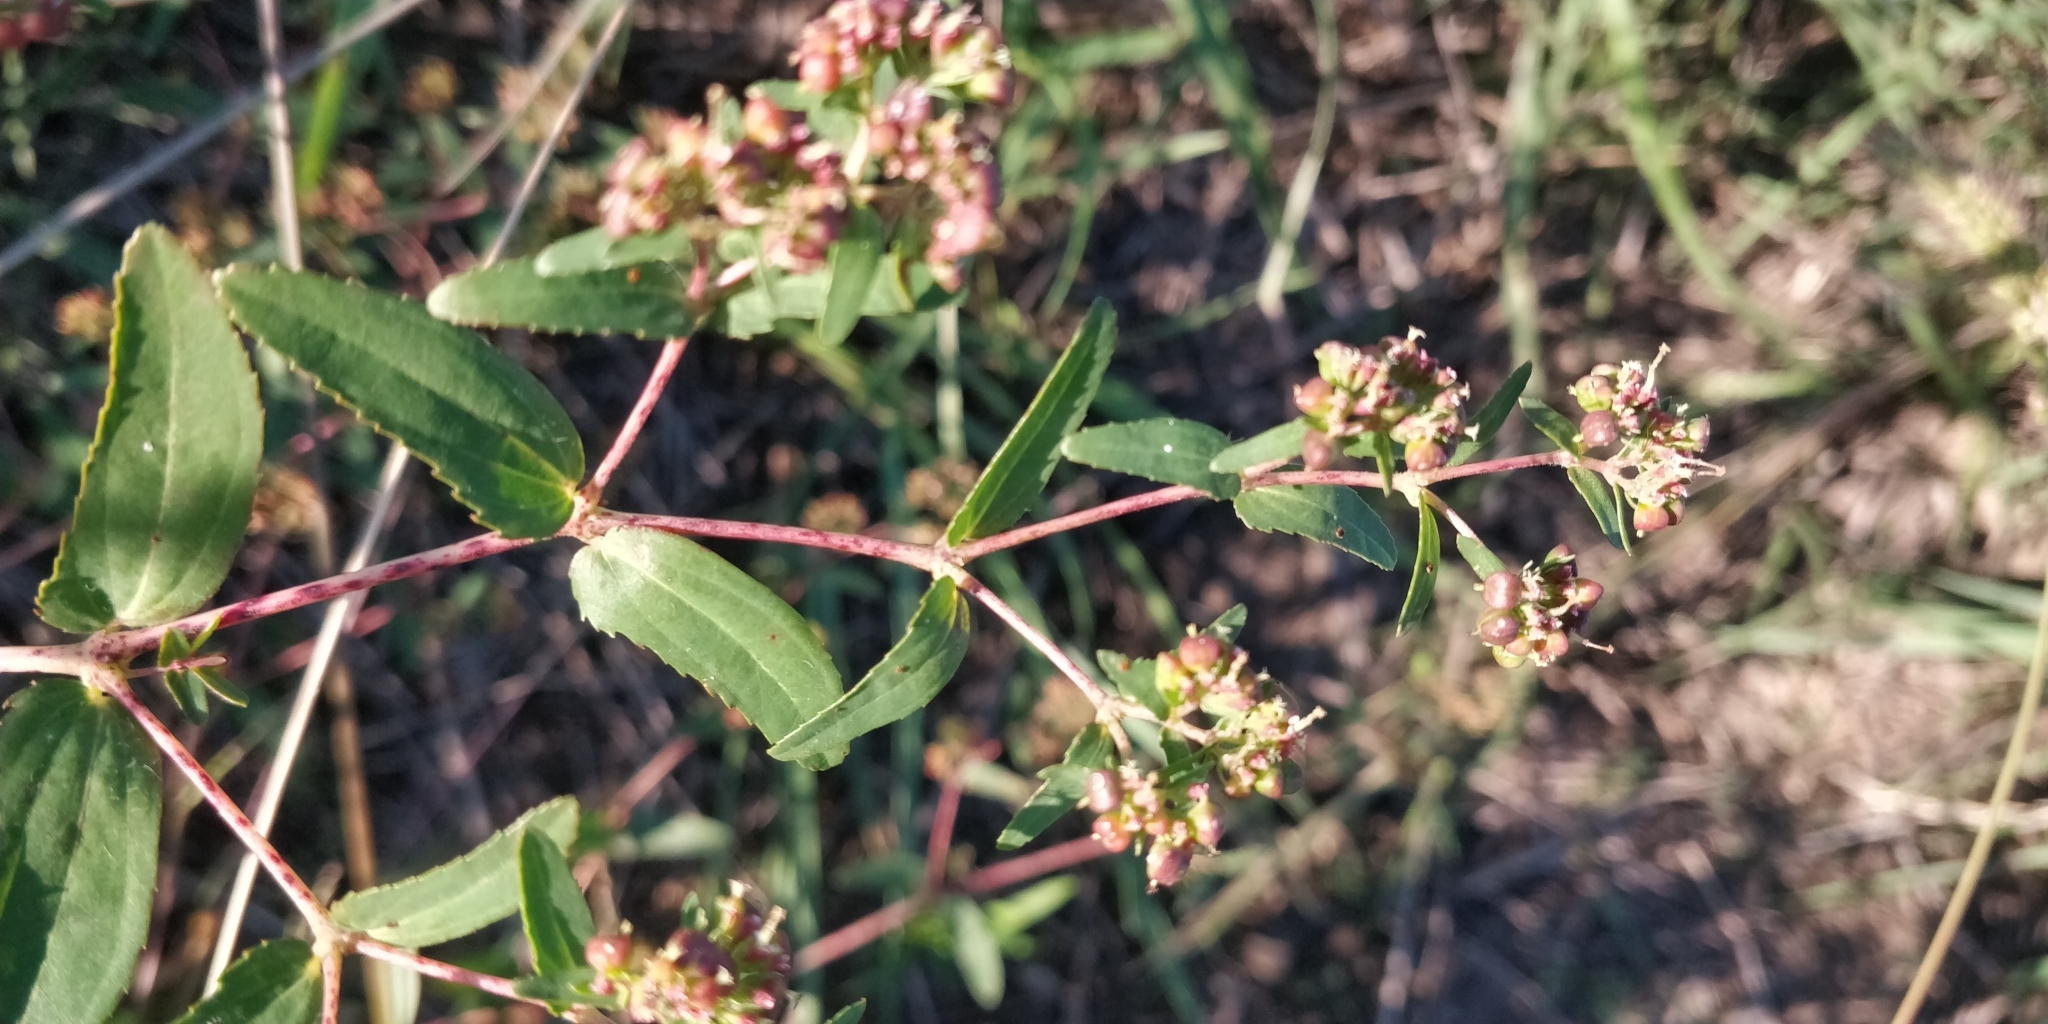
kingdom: Plantae
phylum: Tracheophyta
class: Magnoliopsida
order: Malpighiales
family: Euphorbiaceae
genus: Euphorbia
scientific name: Euphorbia nutans
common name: Eyebane
